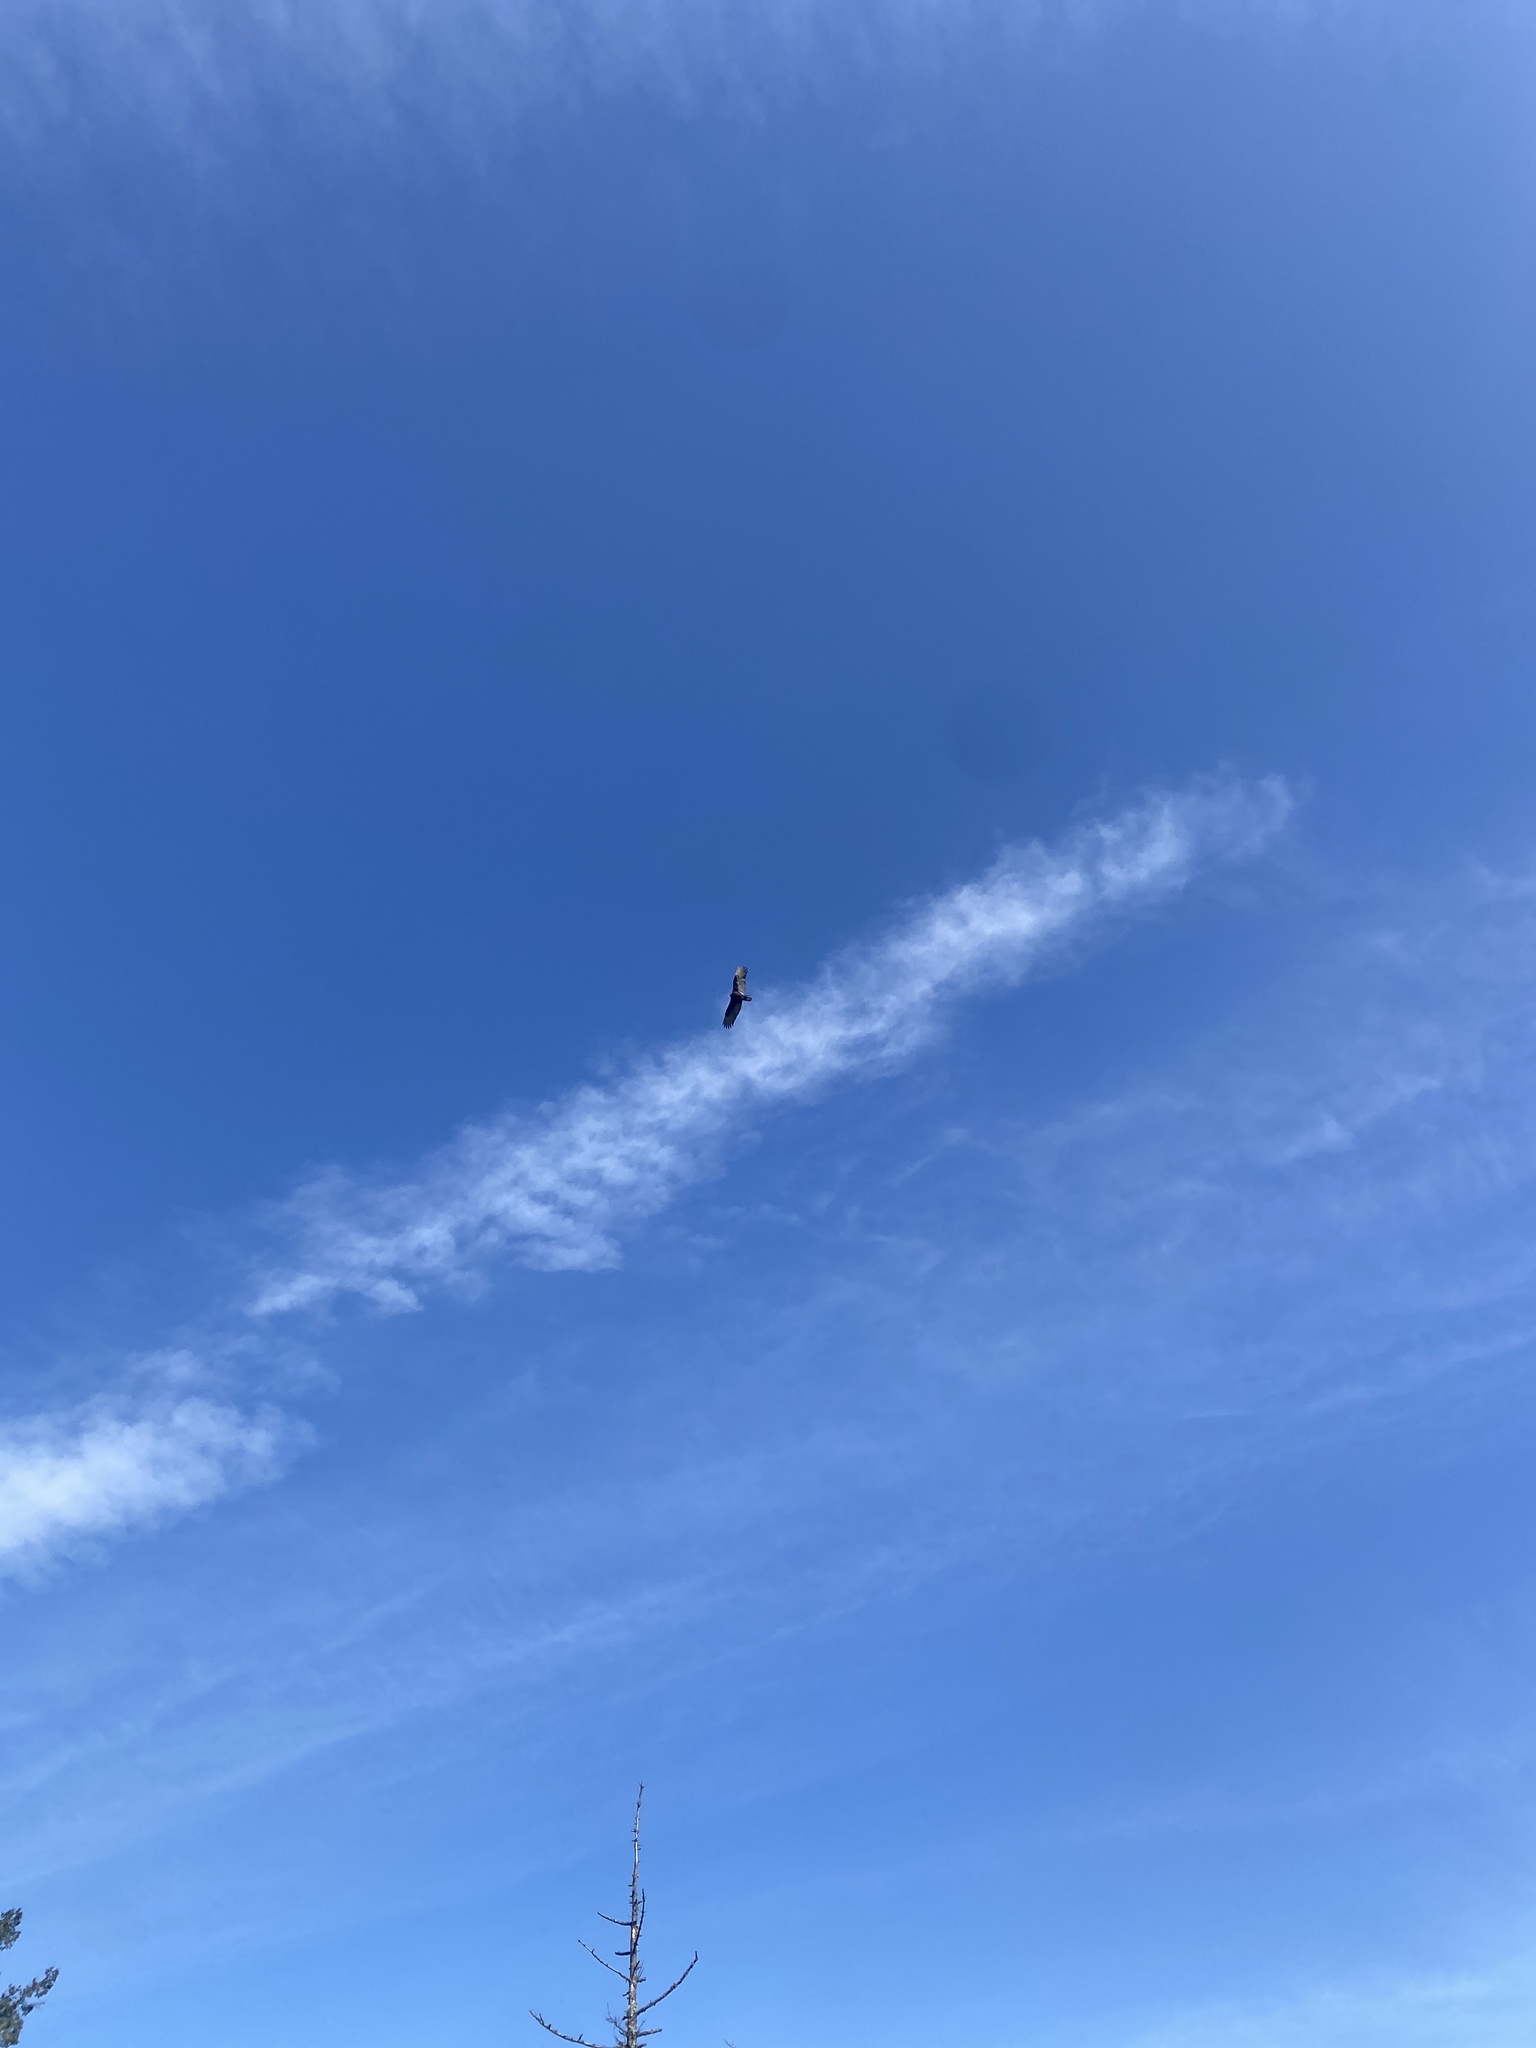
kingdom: Animalia
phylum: Chordata
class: Aves
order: Accipitriformes
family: Cathartidae
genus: Cathartes
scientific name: Cathartes aura
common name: Turkey vulture
